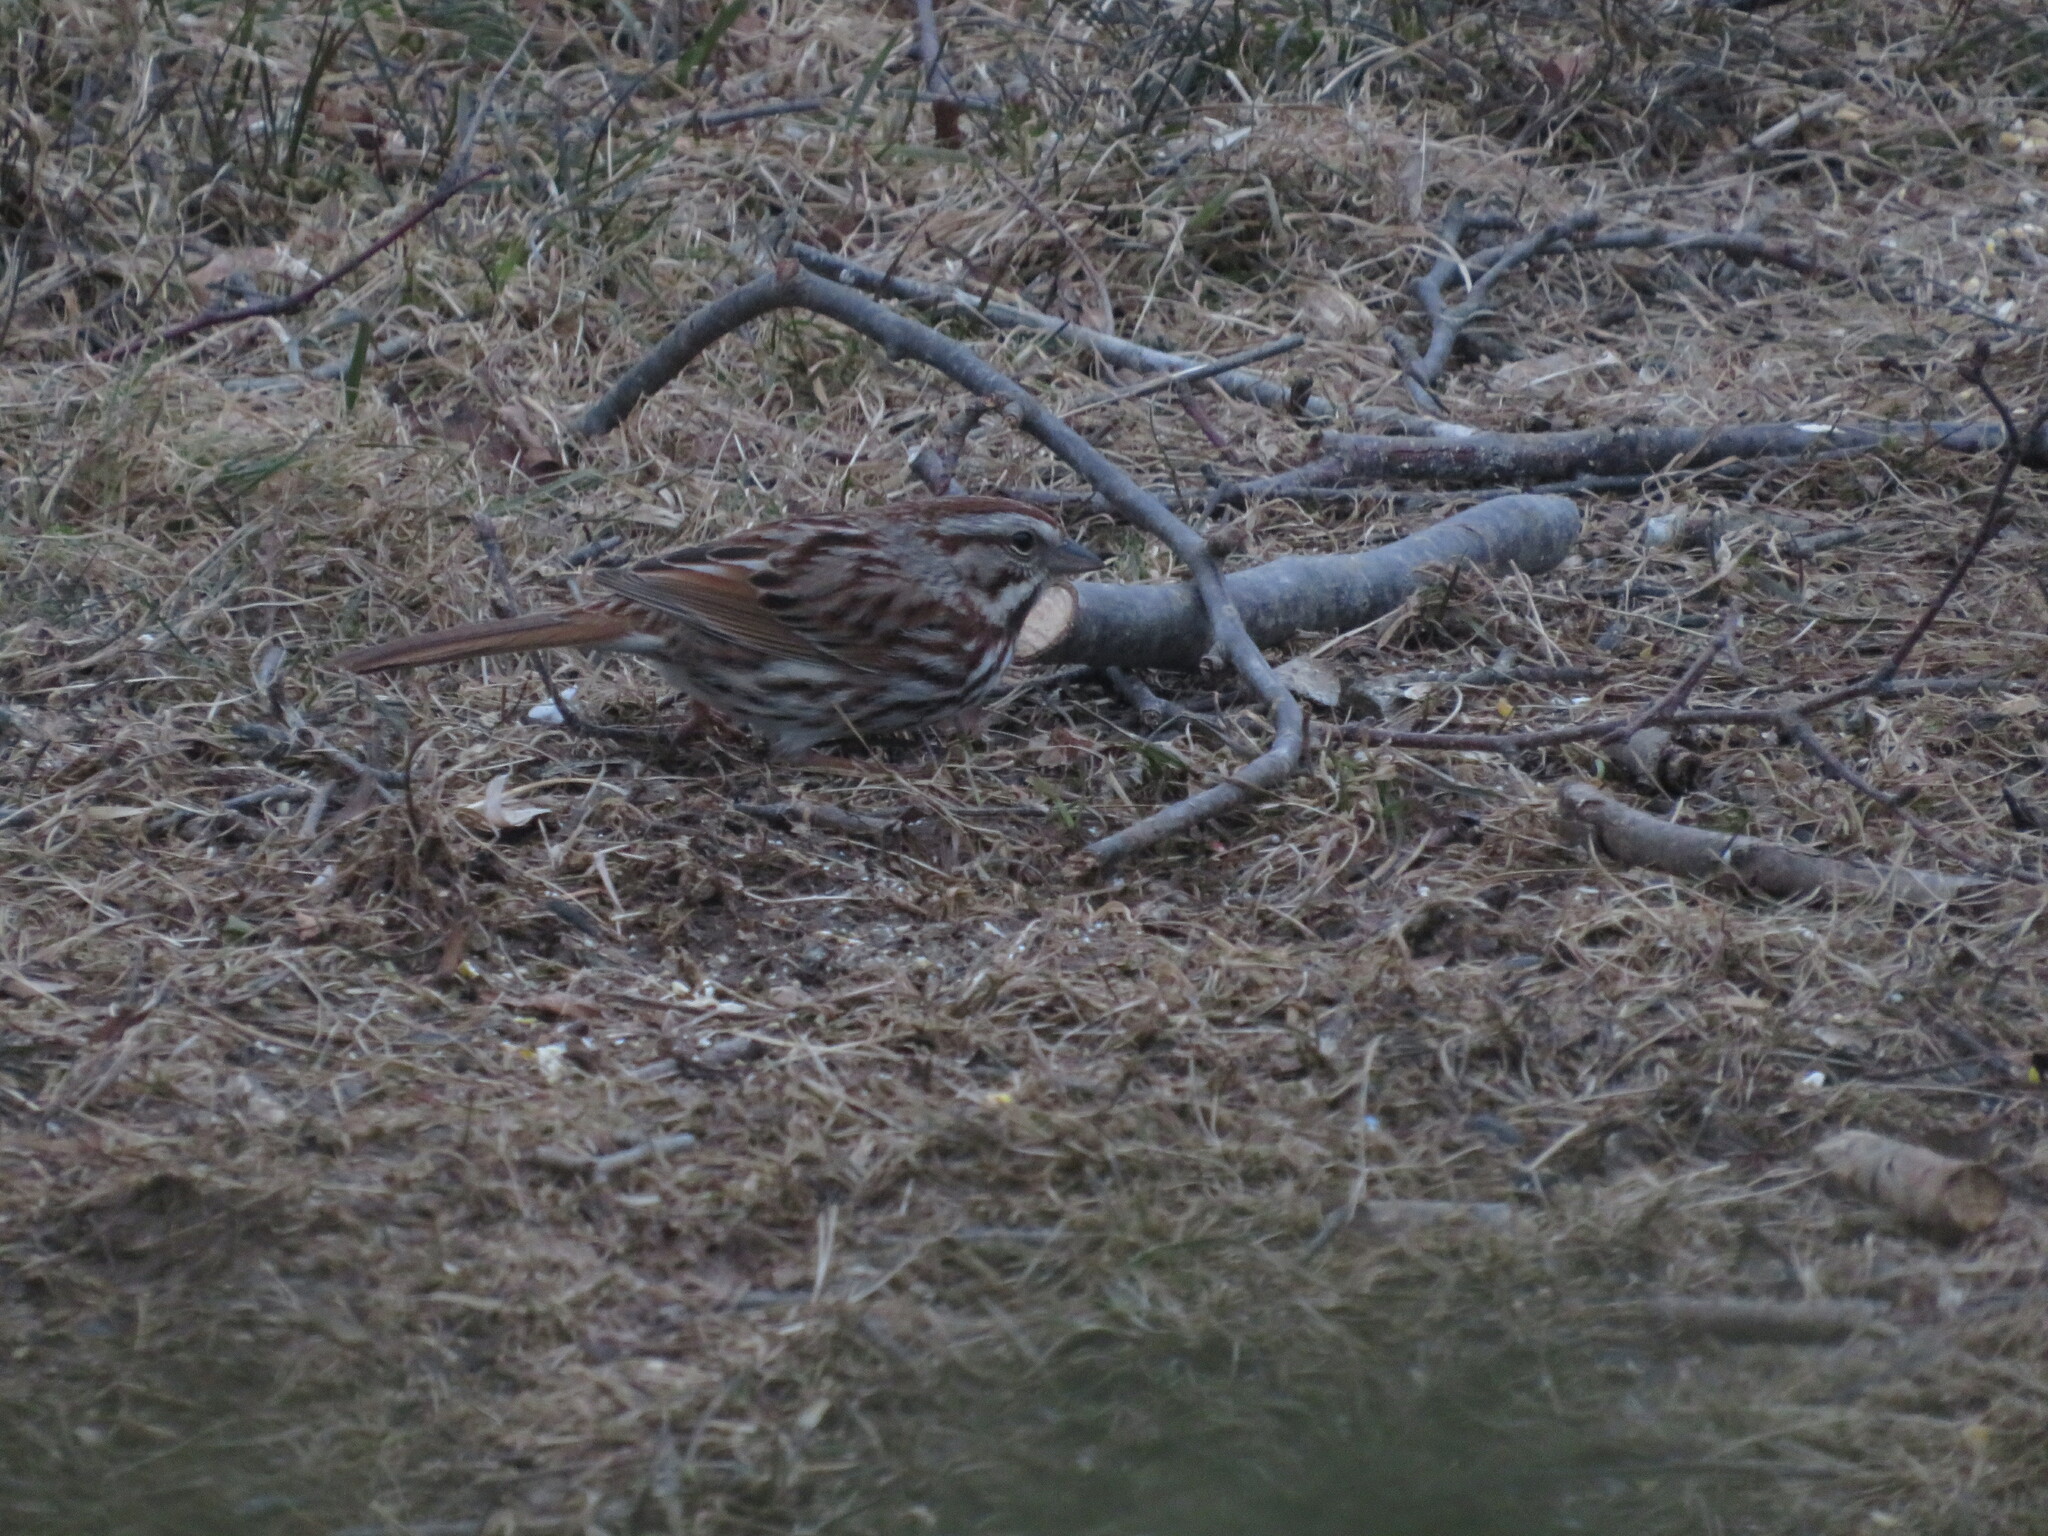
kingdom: Animalia
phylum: Chordata
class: Aves
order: Passeriformes
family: Passerellidae
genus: Melospiza
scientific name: Melospiza melodia
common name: Song sparrow
